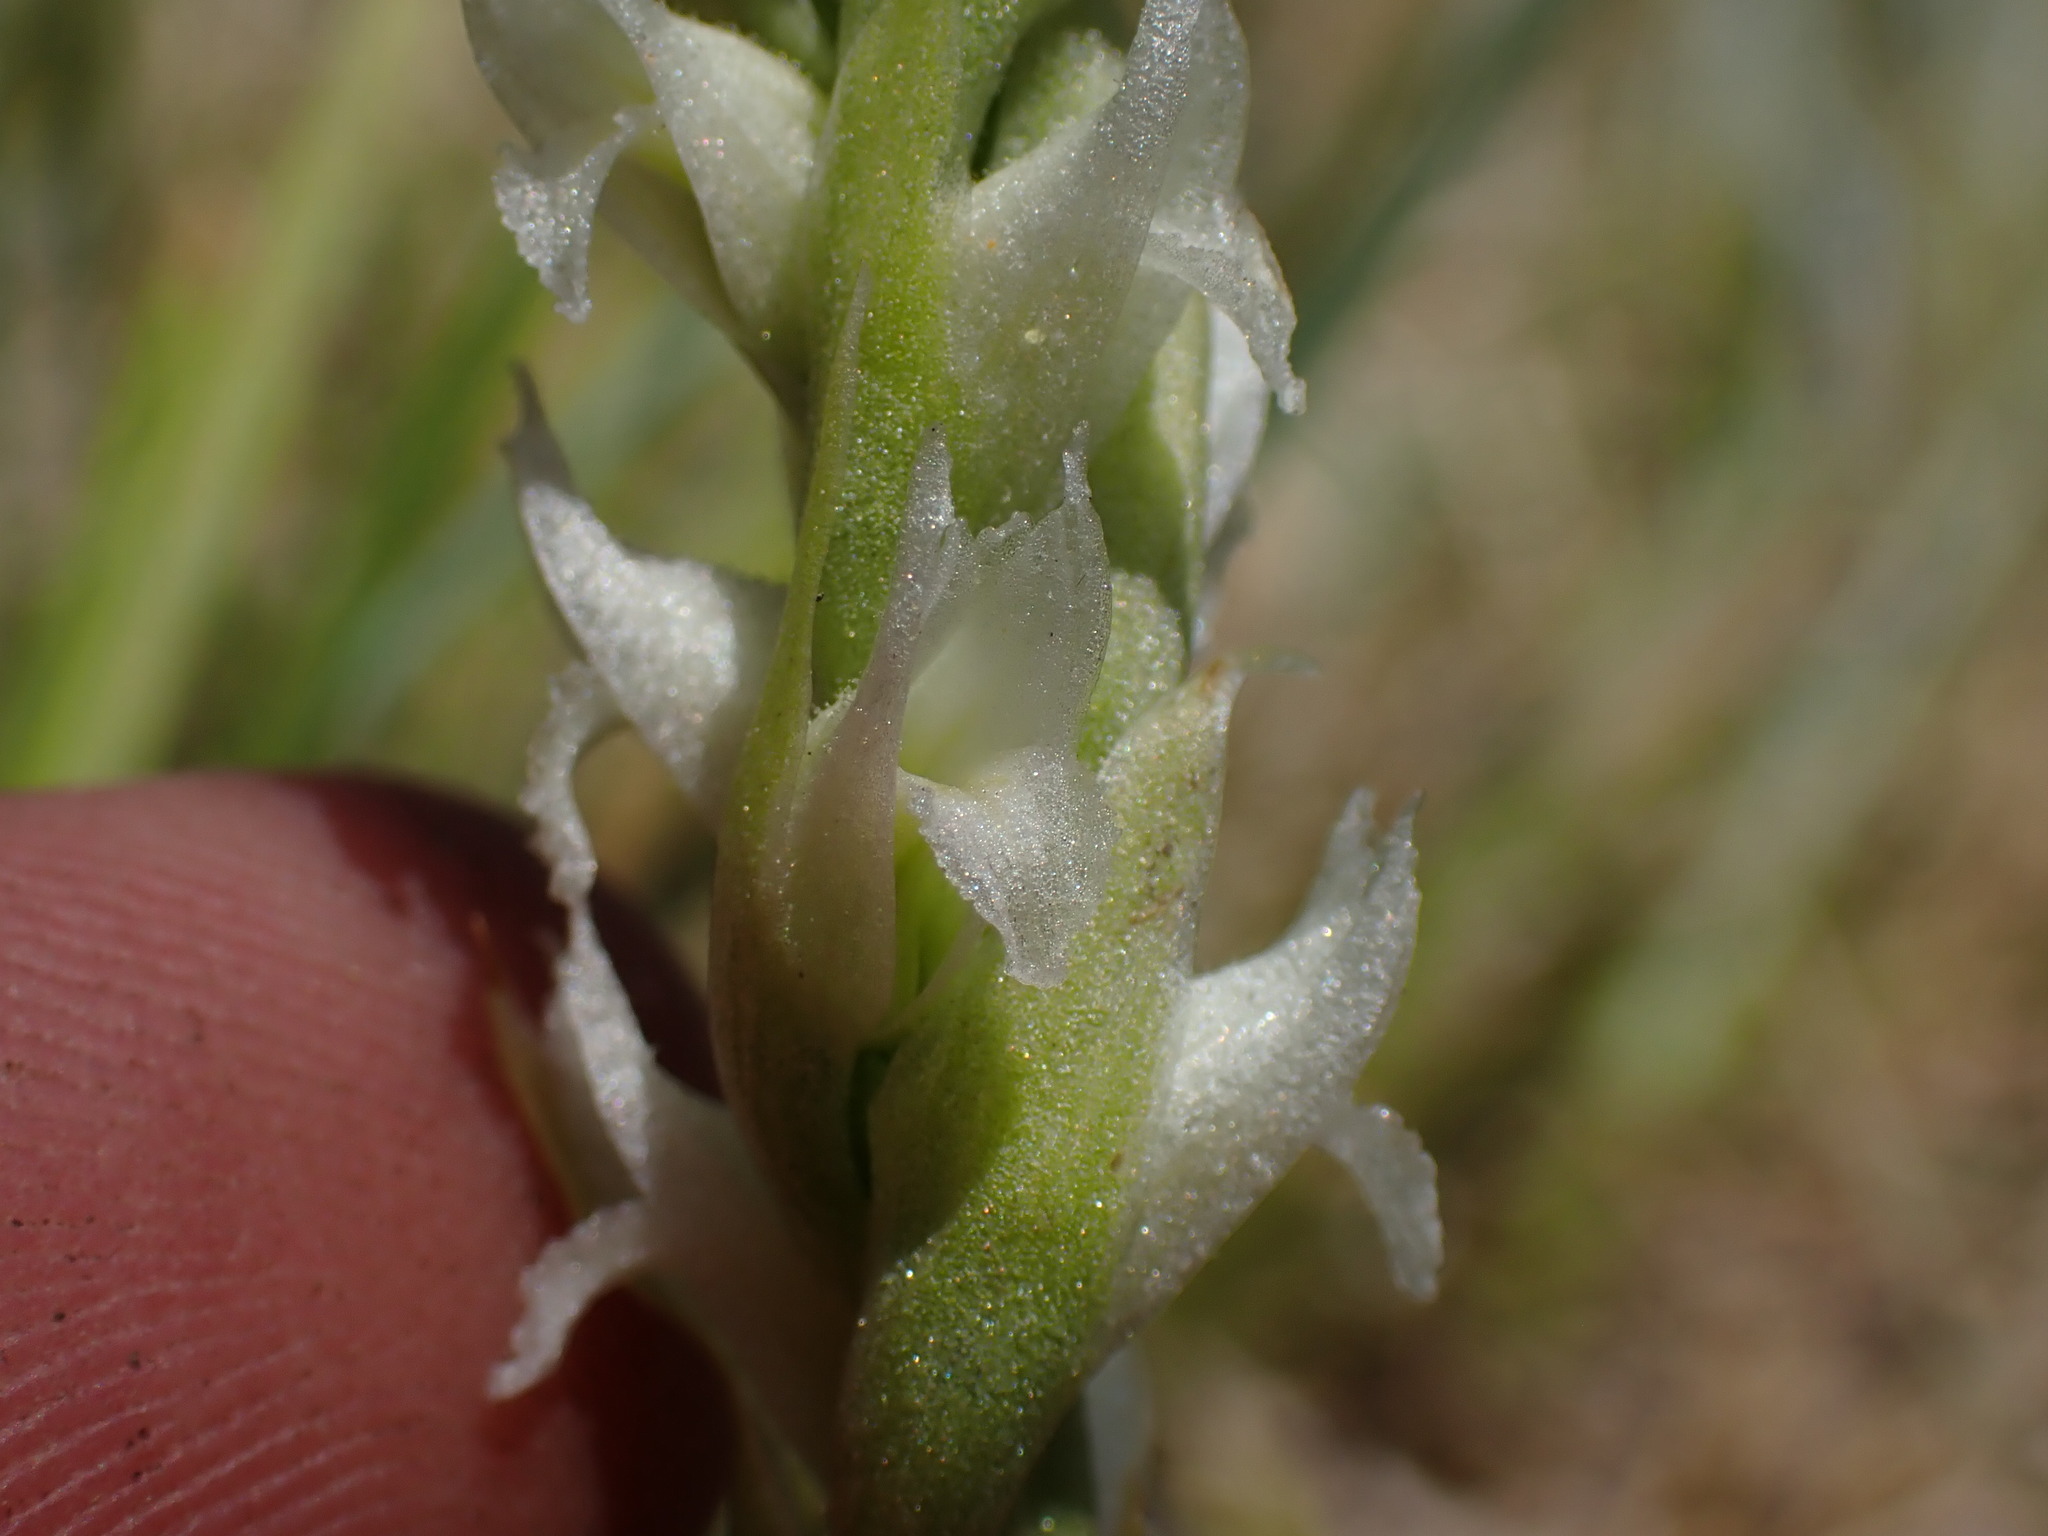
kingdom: Plantae
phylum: Tracheophyta
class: Liliopsida
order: Asparagales
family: Orchidaceae
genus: Spiranthes
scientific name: Spiranthes romanzoffiana
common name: Irish lady's-tresses
